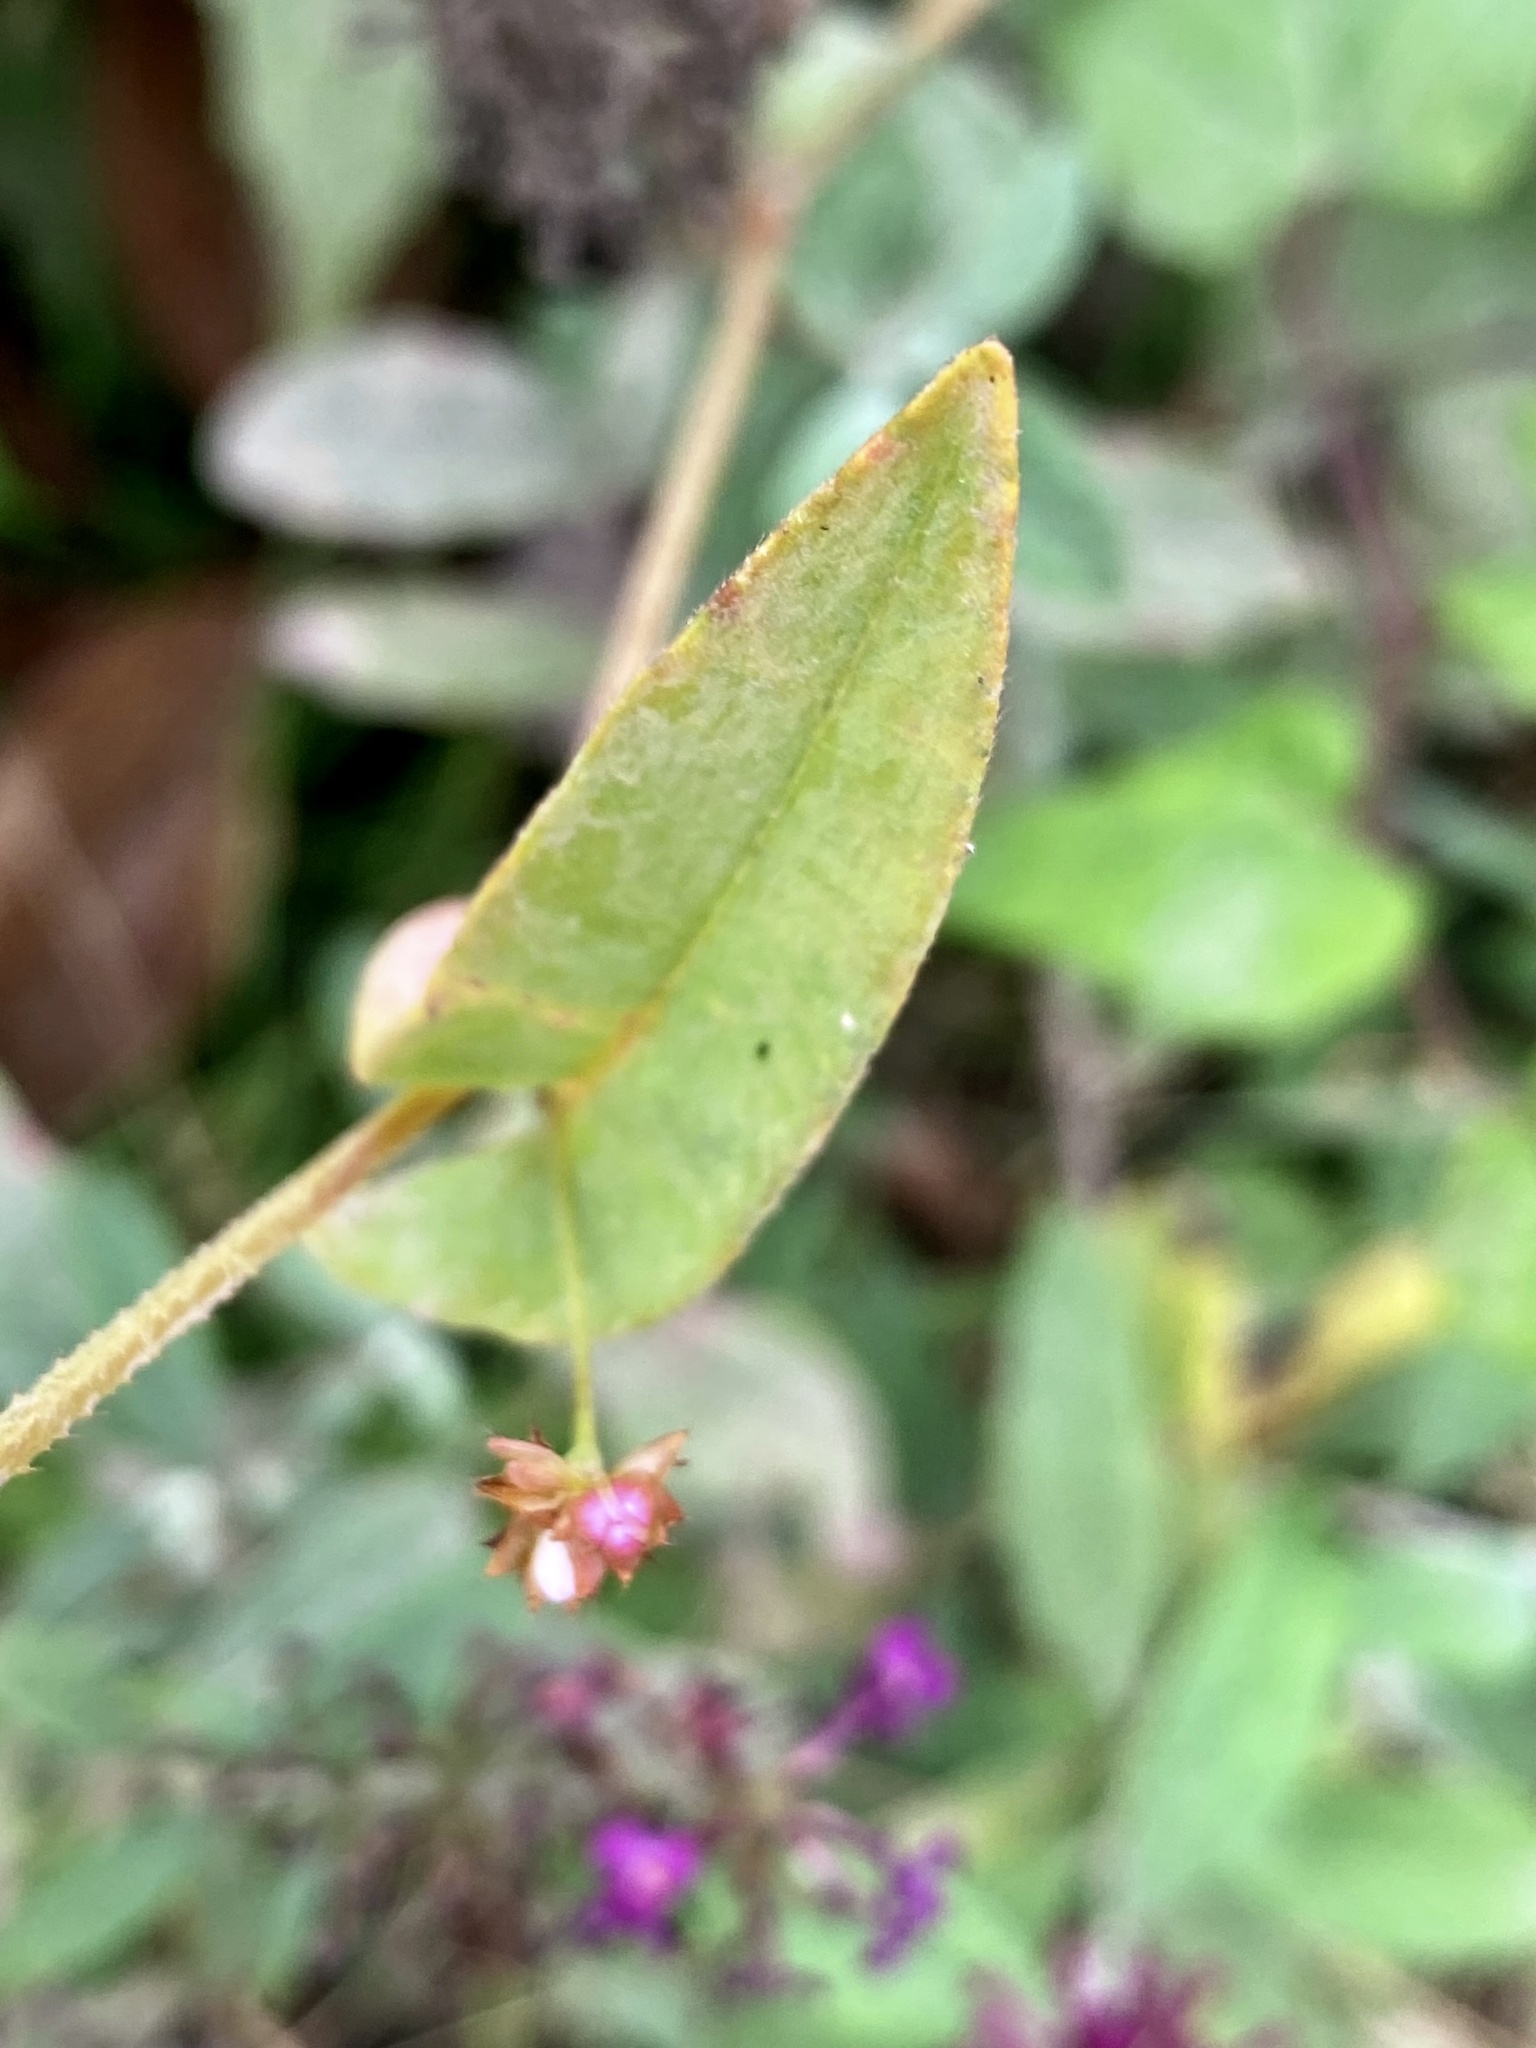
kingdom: Plantae
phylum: Tracheophyta
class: Magnoliopsida
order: Caryophyllales
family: Polygonaceae
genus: Persicaria
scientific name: Persicaria sagittata
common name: American tearthumb
